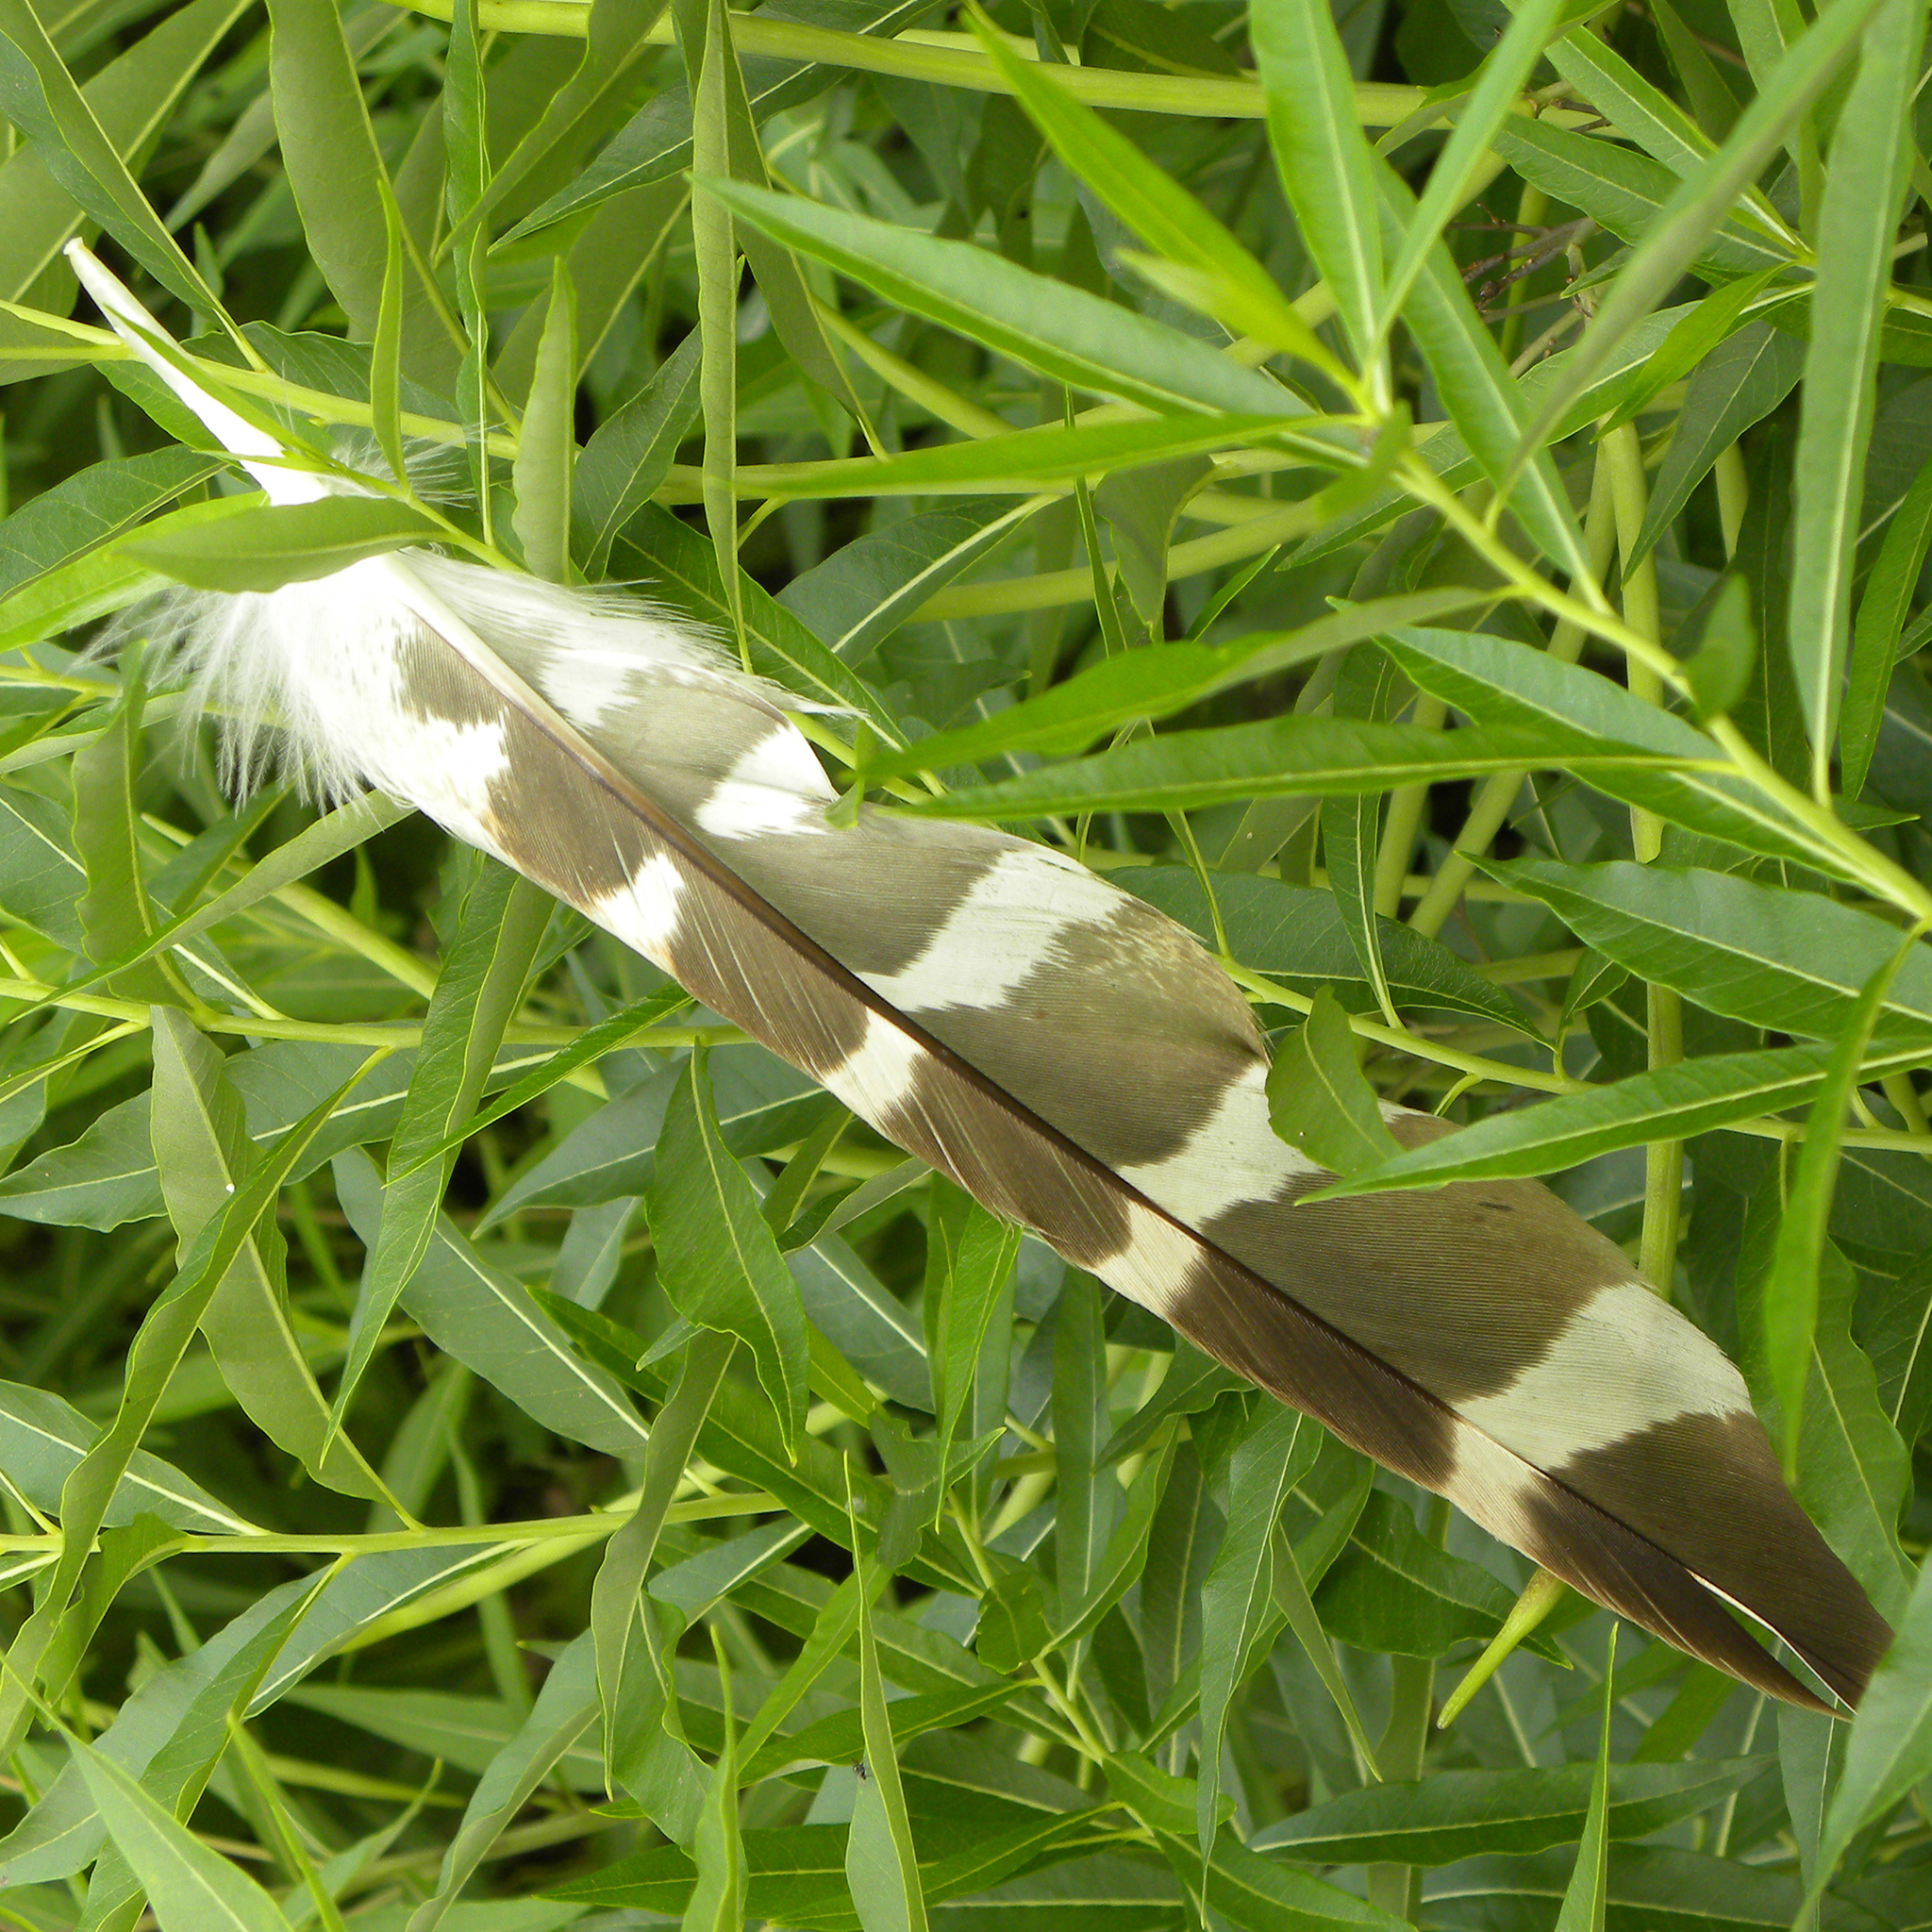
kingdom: Animalia
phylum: Chordata
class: Aves
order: Accipitriformes
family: Accipitridae
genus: Buteo
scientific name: Buteo lineatus
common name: Red-shouldered hawk
